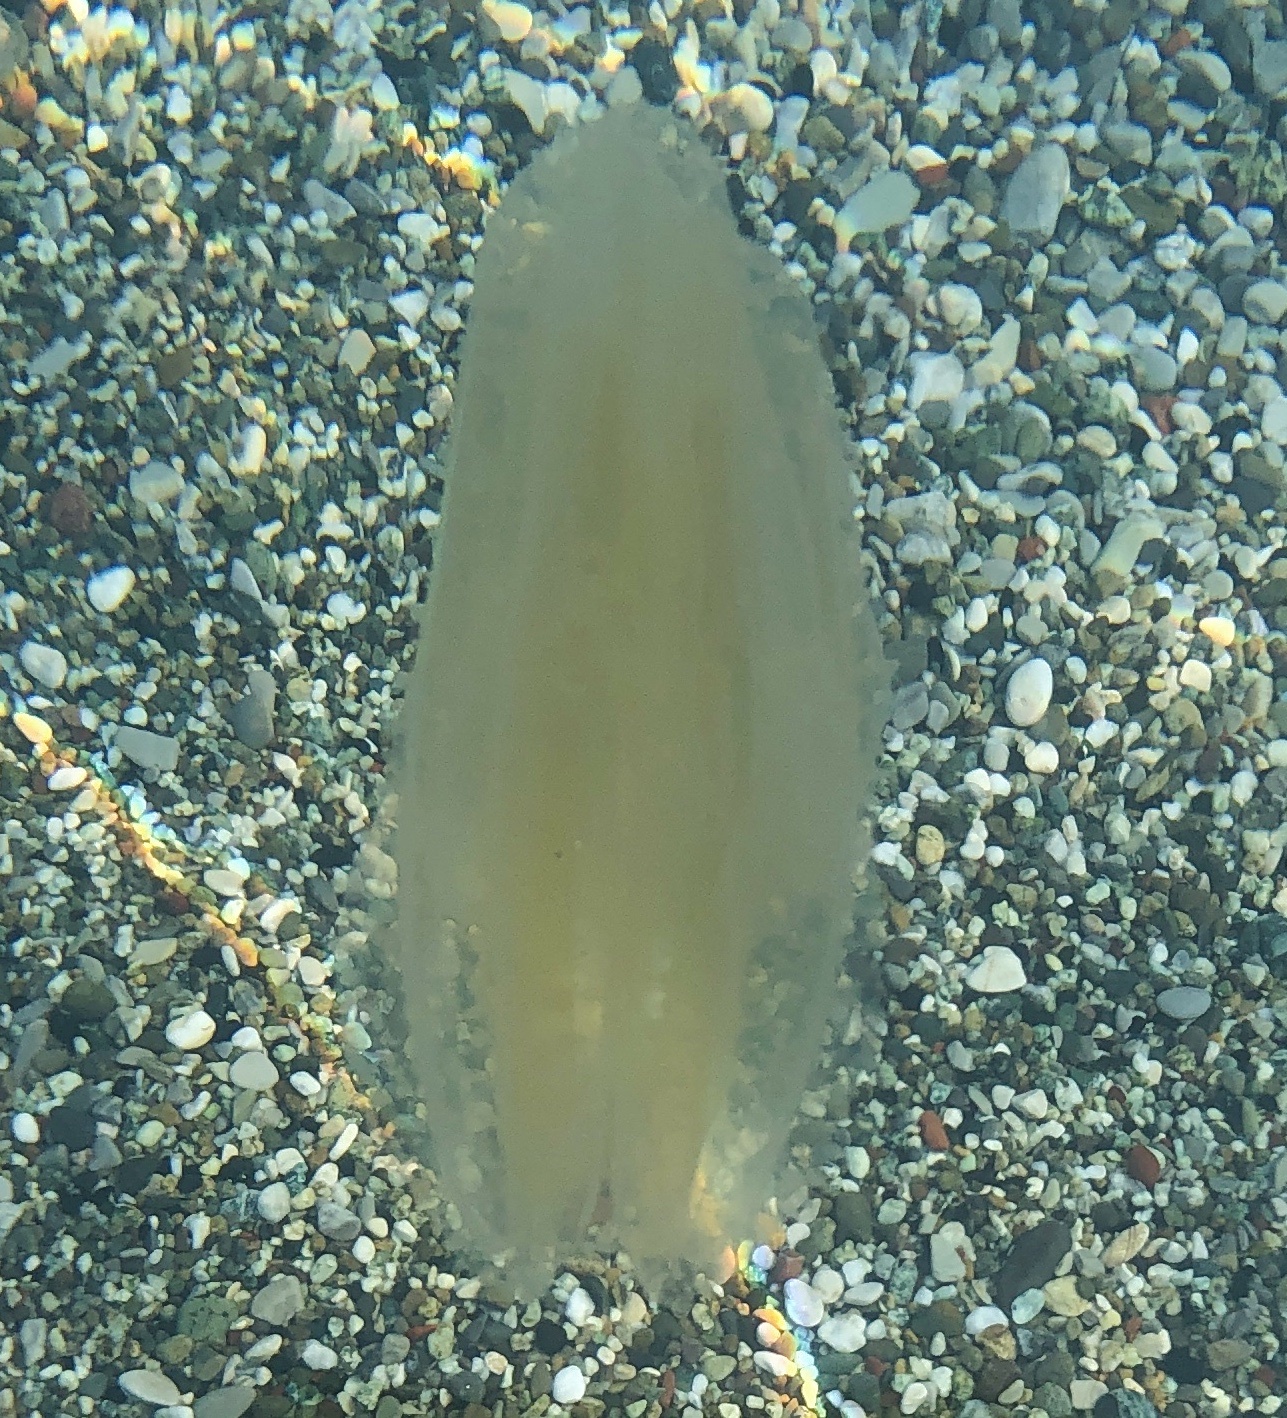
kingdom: Animalia
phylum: Ctenophora
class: Tentaculata
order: Lobata
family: Leucotheidae
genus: Leucothea
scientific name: Leucothea multicornis
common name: Vitreous lobate comb-jelly
